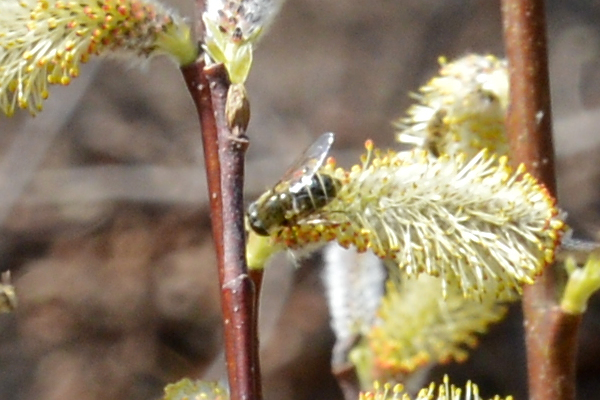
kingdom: Animalia
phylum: Arthropoda
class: Insecta
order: Diptera
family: Syrphidae
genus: Eristalis
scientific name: Eristalis dimidiata
